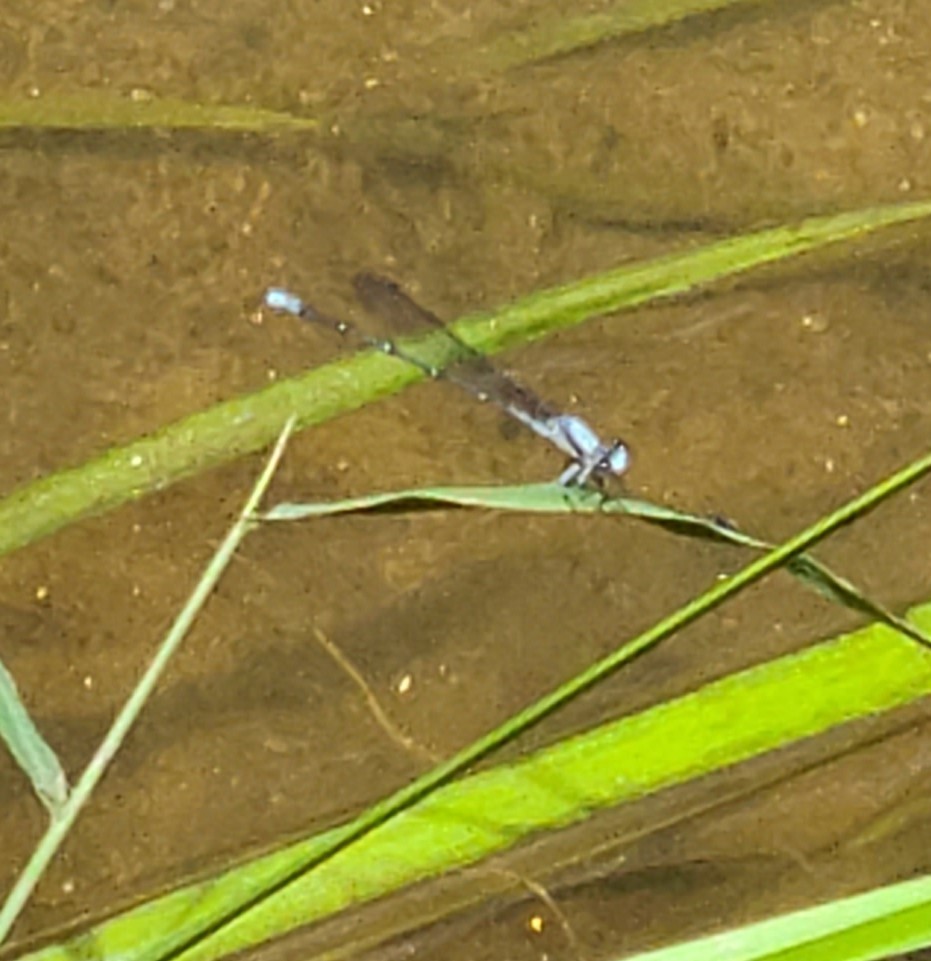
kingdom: Animalia
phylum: Arthropoda
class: Insecta
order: Odonata
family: Coenagrionidae
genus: Argia
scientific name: Argia moesta
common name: Powdered dancer
